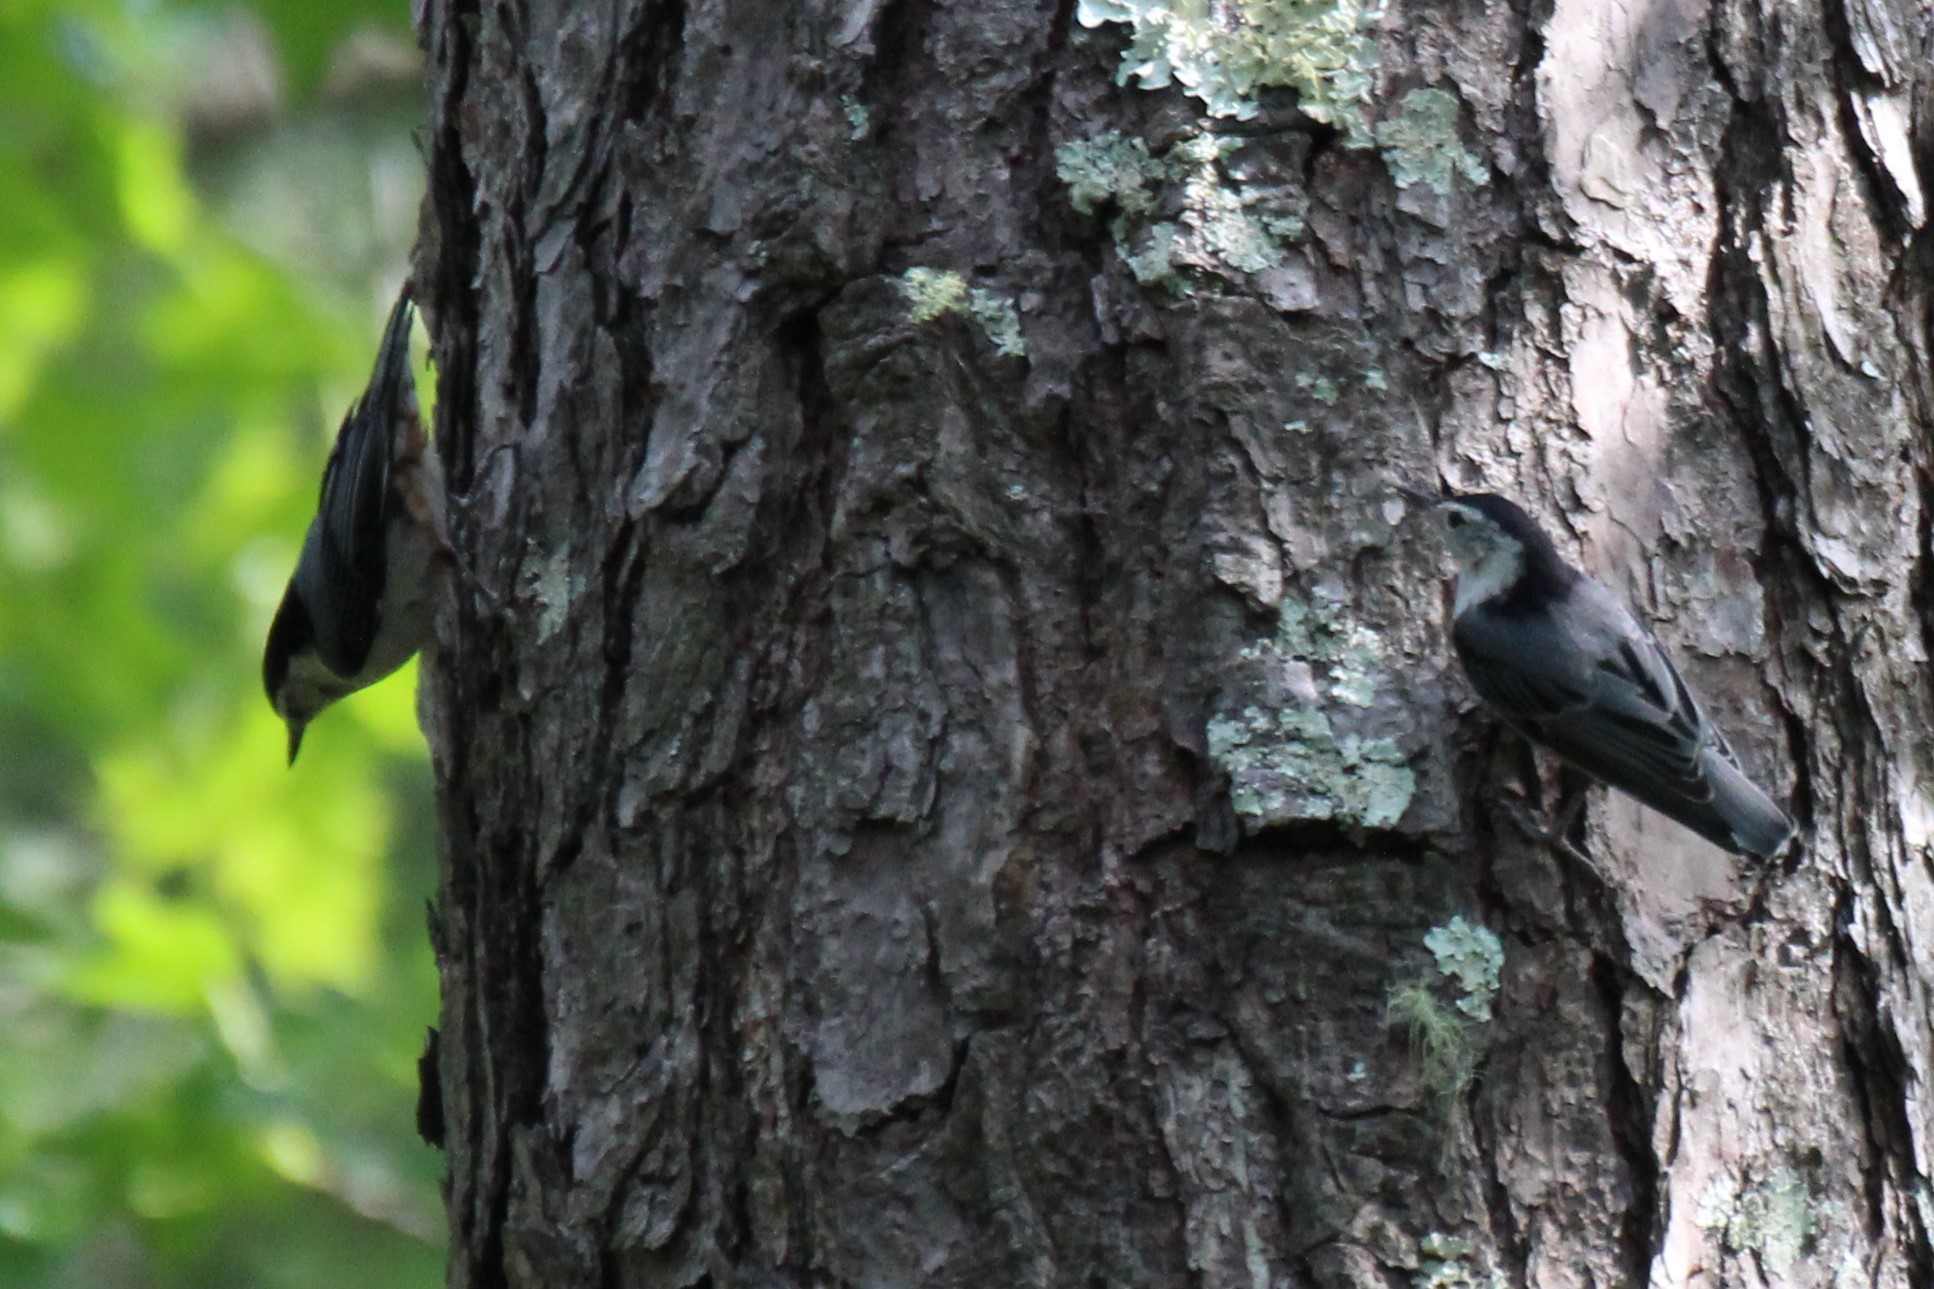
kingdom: Animalia
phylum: Chordata
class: Aves
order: Passeriformes
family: Sittidae
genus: Sitta
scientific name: Sitta carolinensis
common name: White-breasted nuthatch
